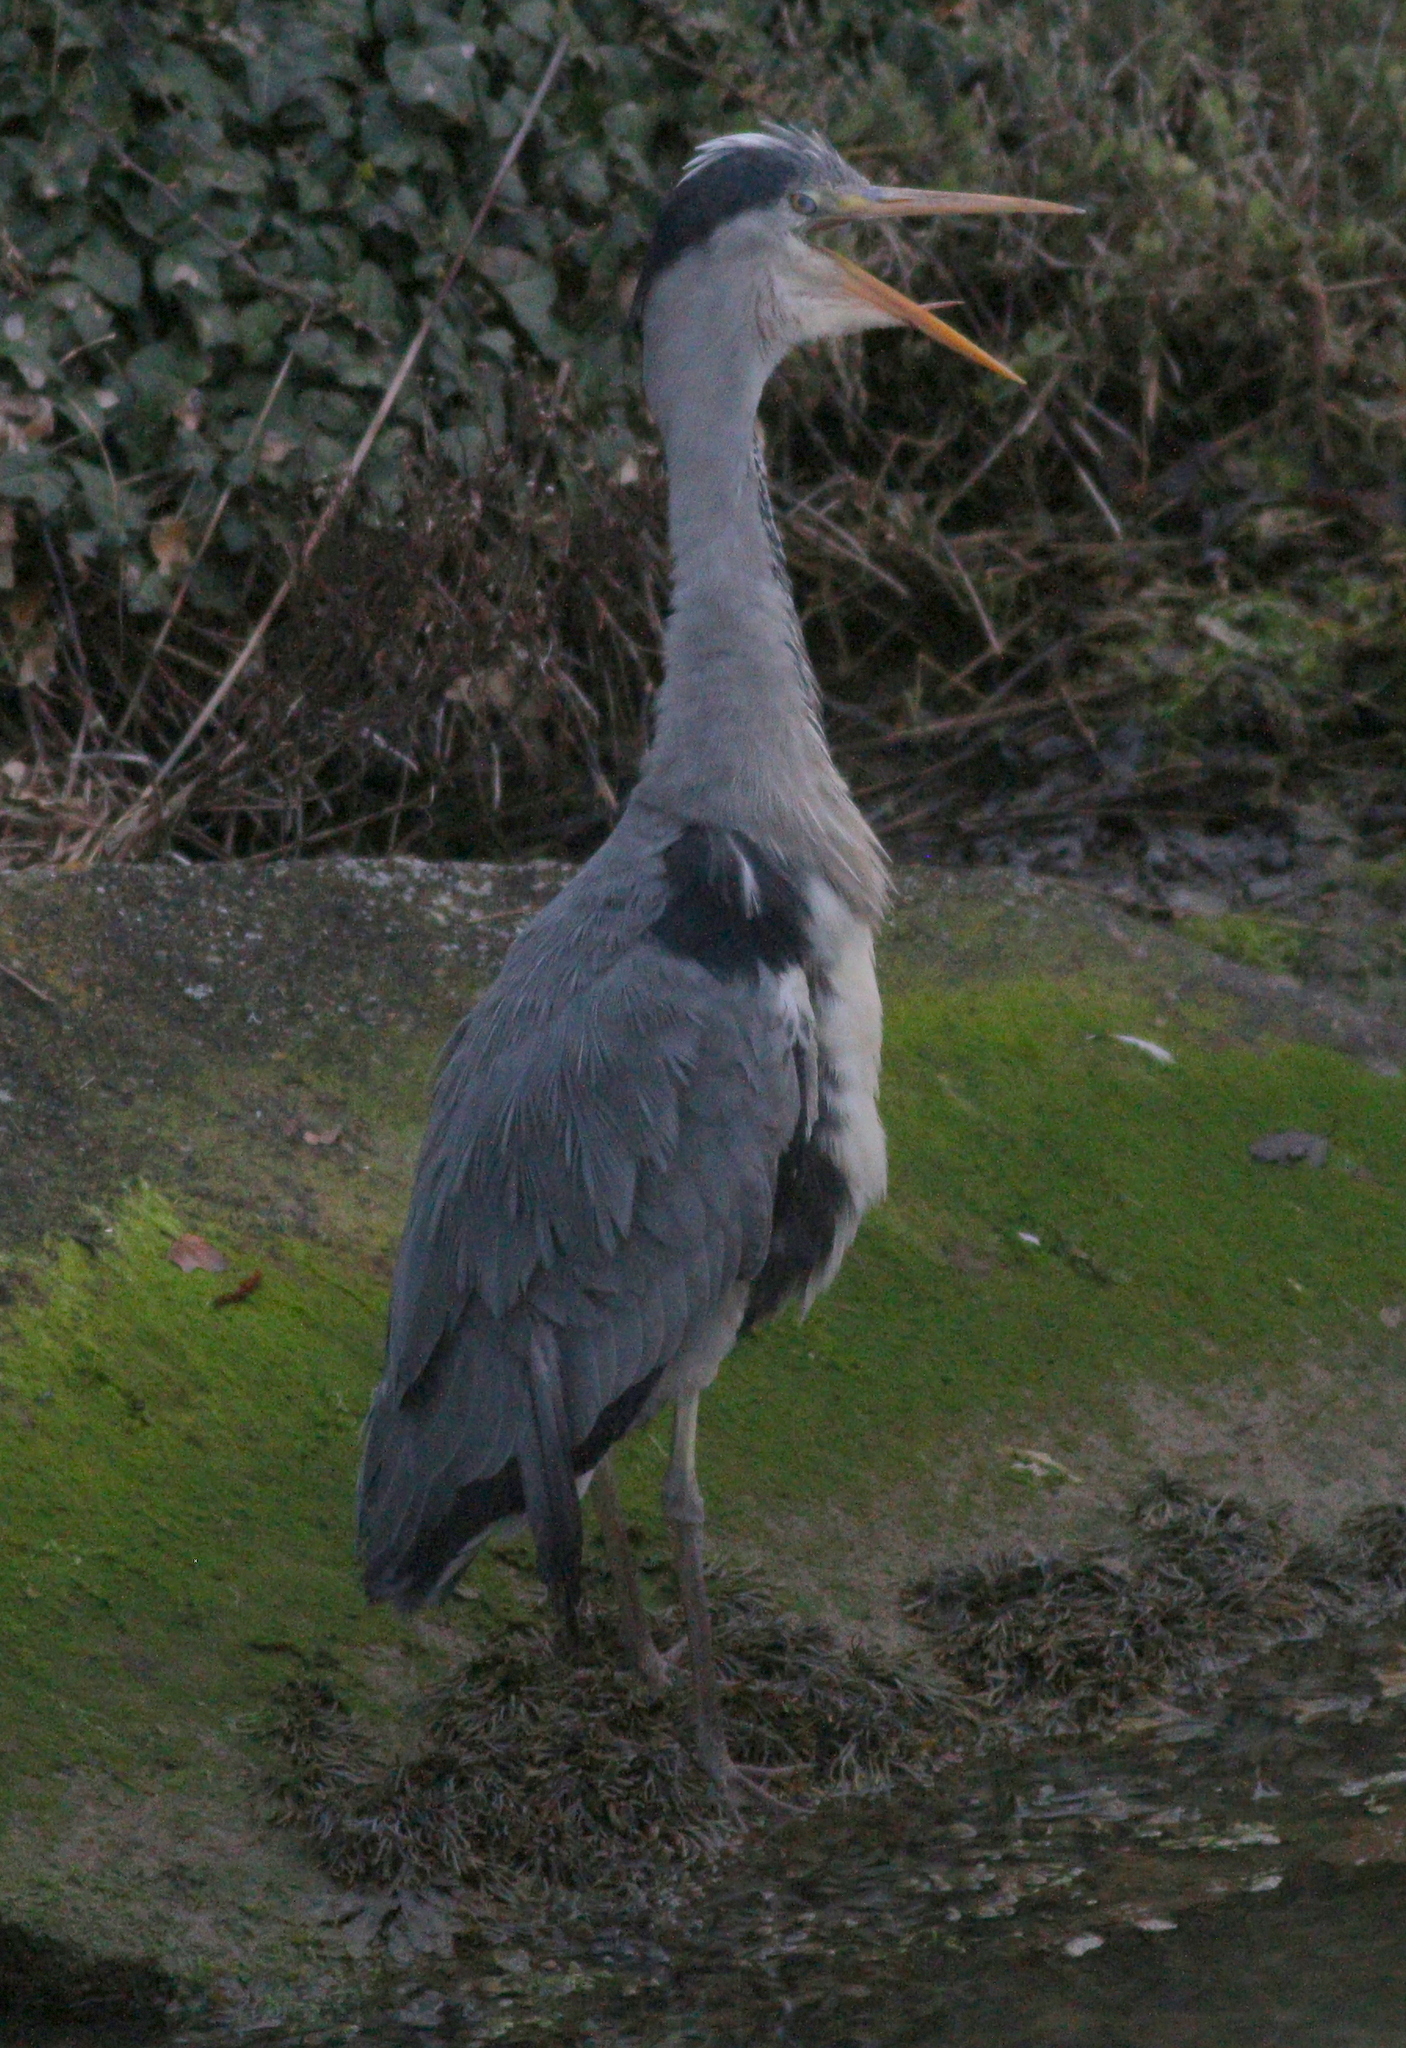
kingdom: Animalia
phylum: Chordata
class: Aves
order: Pelecaniformes
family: Ardeidae
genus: Ardea
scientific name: Ardea cinerea
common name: Grey heron
